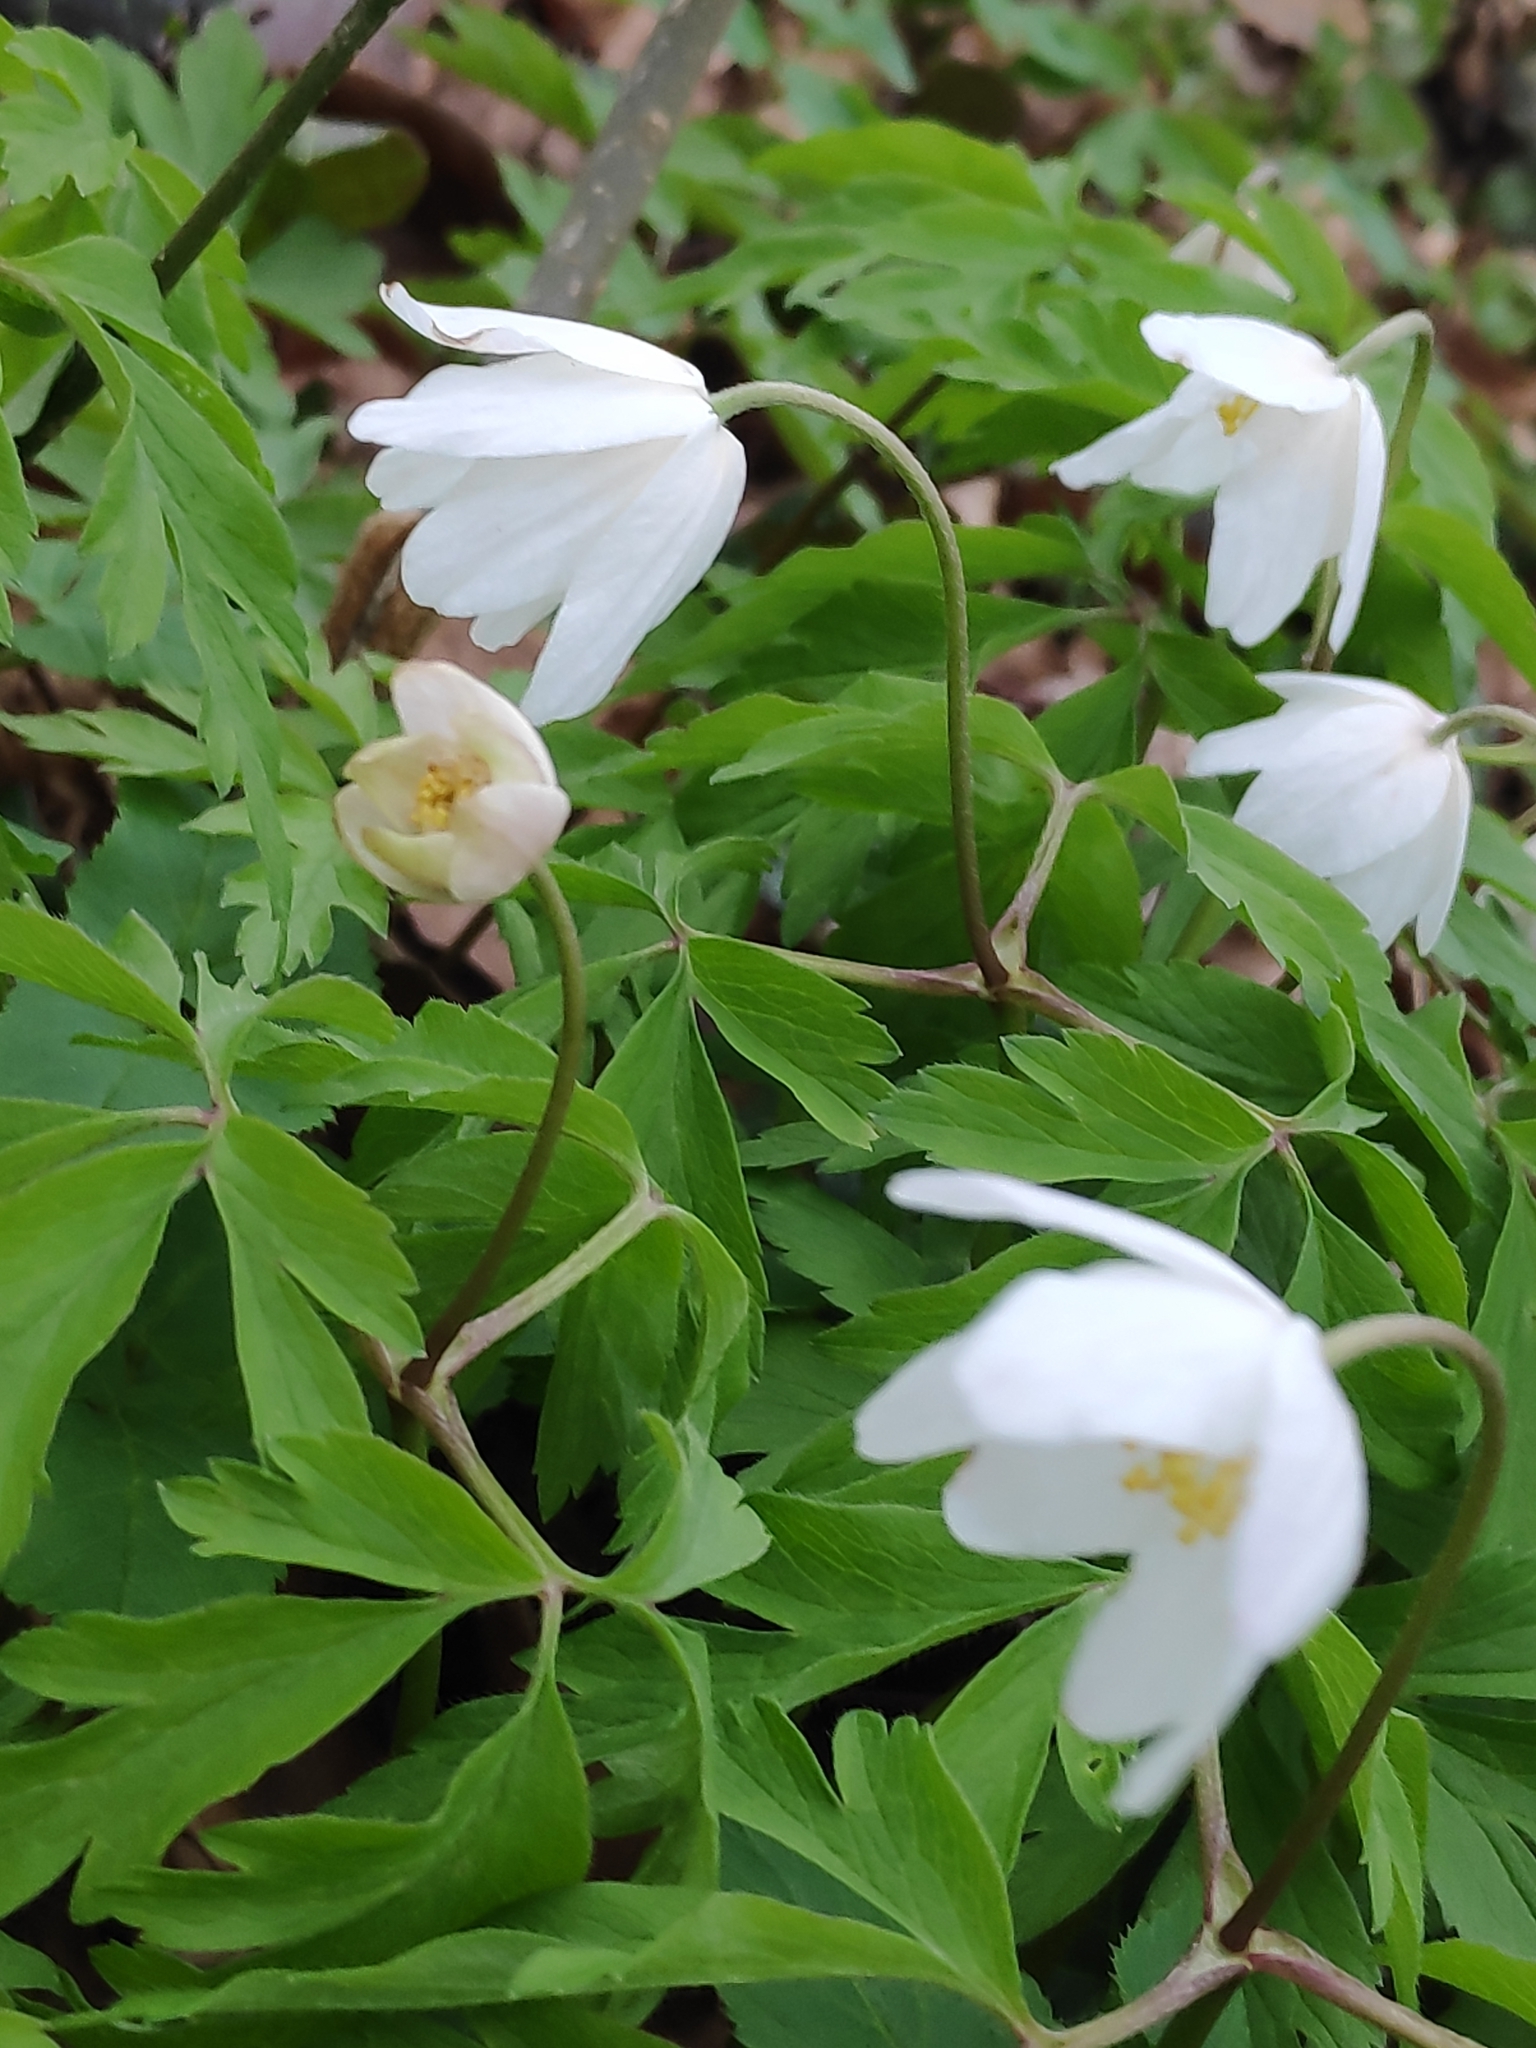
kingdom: Plantae
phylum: Tracheophyta
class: Magnoliopsida
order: Ranunculales
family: Ranunculaceae
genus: Anemone
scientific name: Anemone nemorosa
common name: Wood anemone
